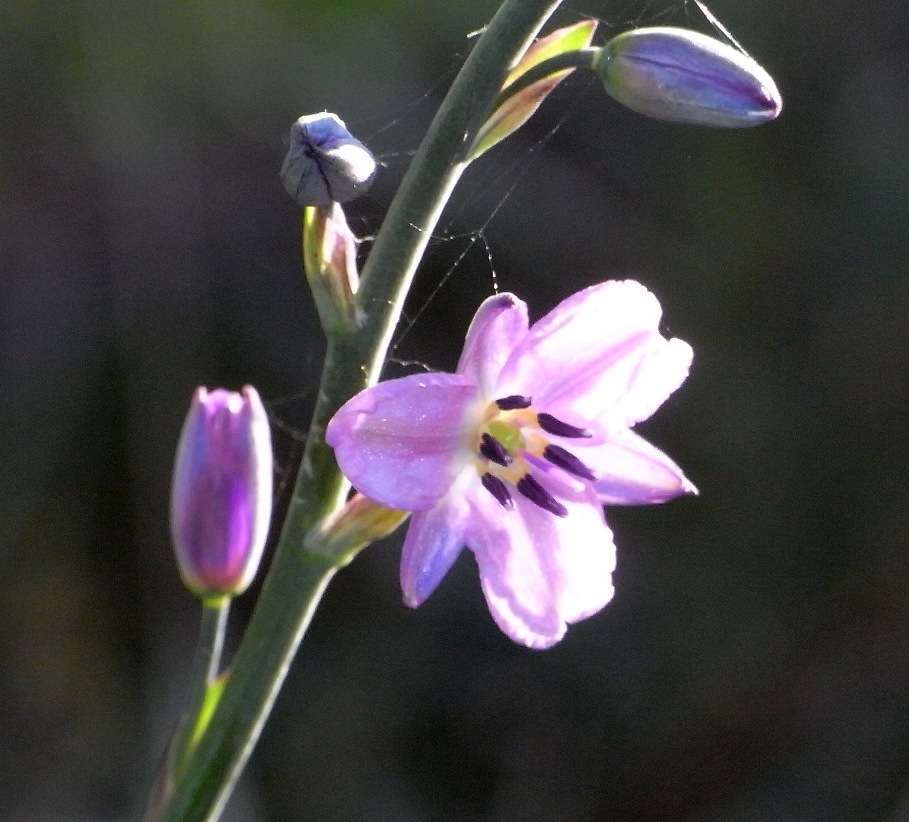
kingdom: Plantae
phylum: Tracheophyta
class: Liliopsida
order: Asparagales
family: Asparagaceae
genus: Arthropodium
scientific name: Arthropodium strictum
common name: Chocolate-lily
